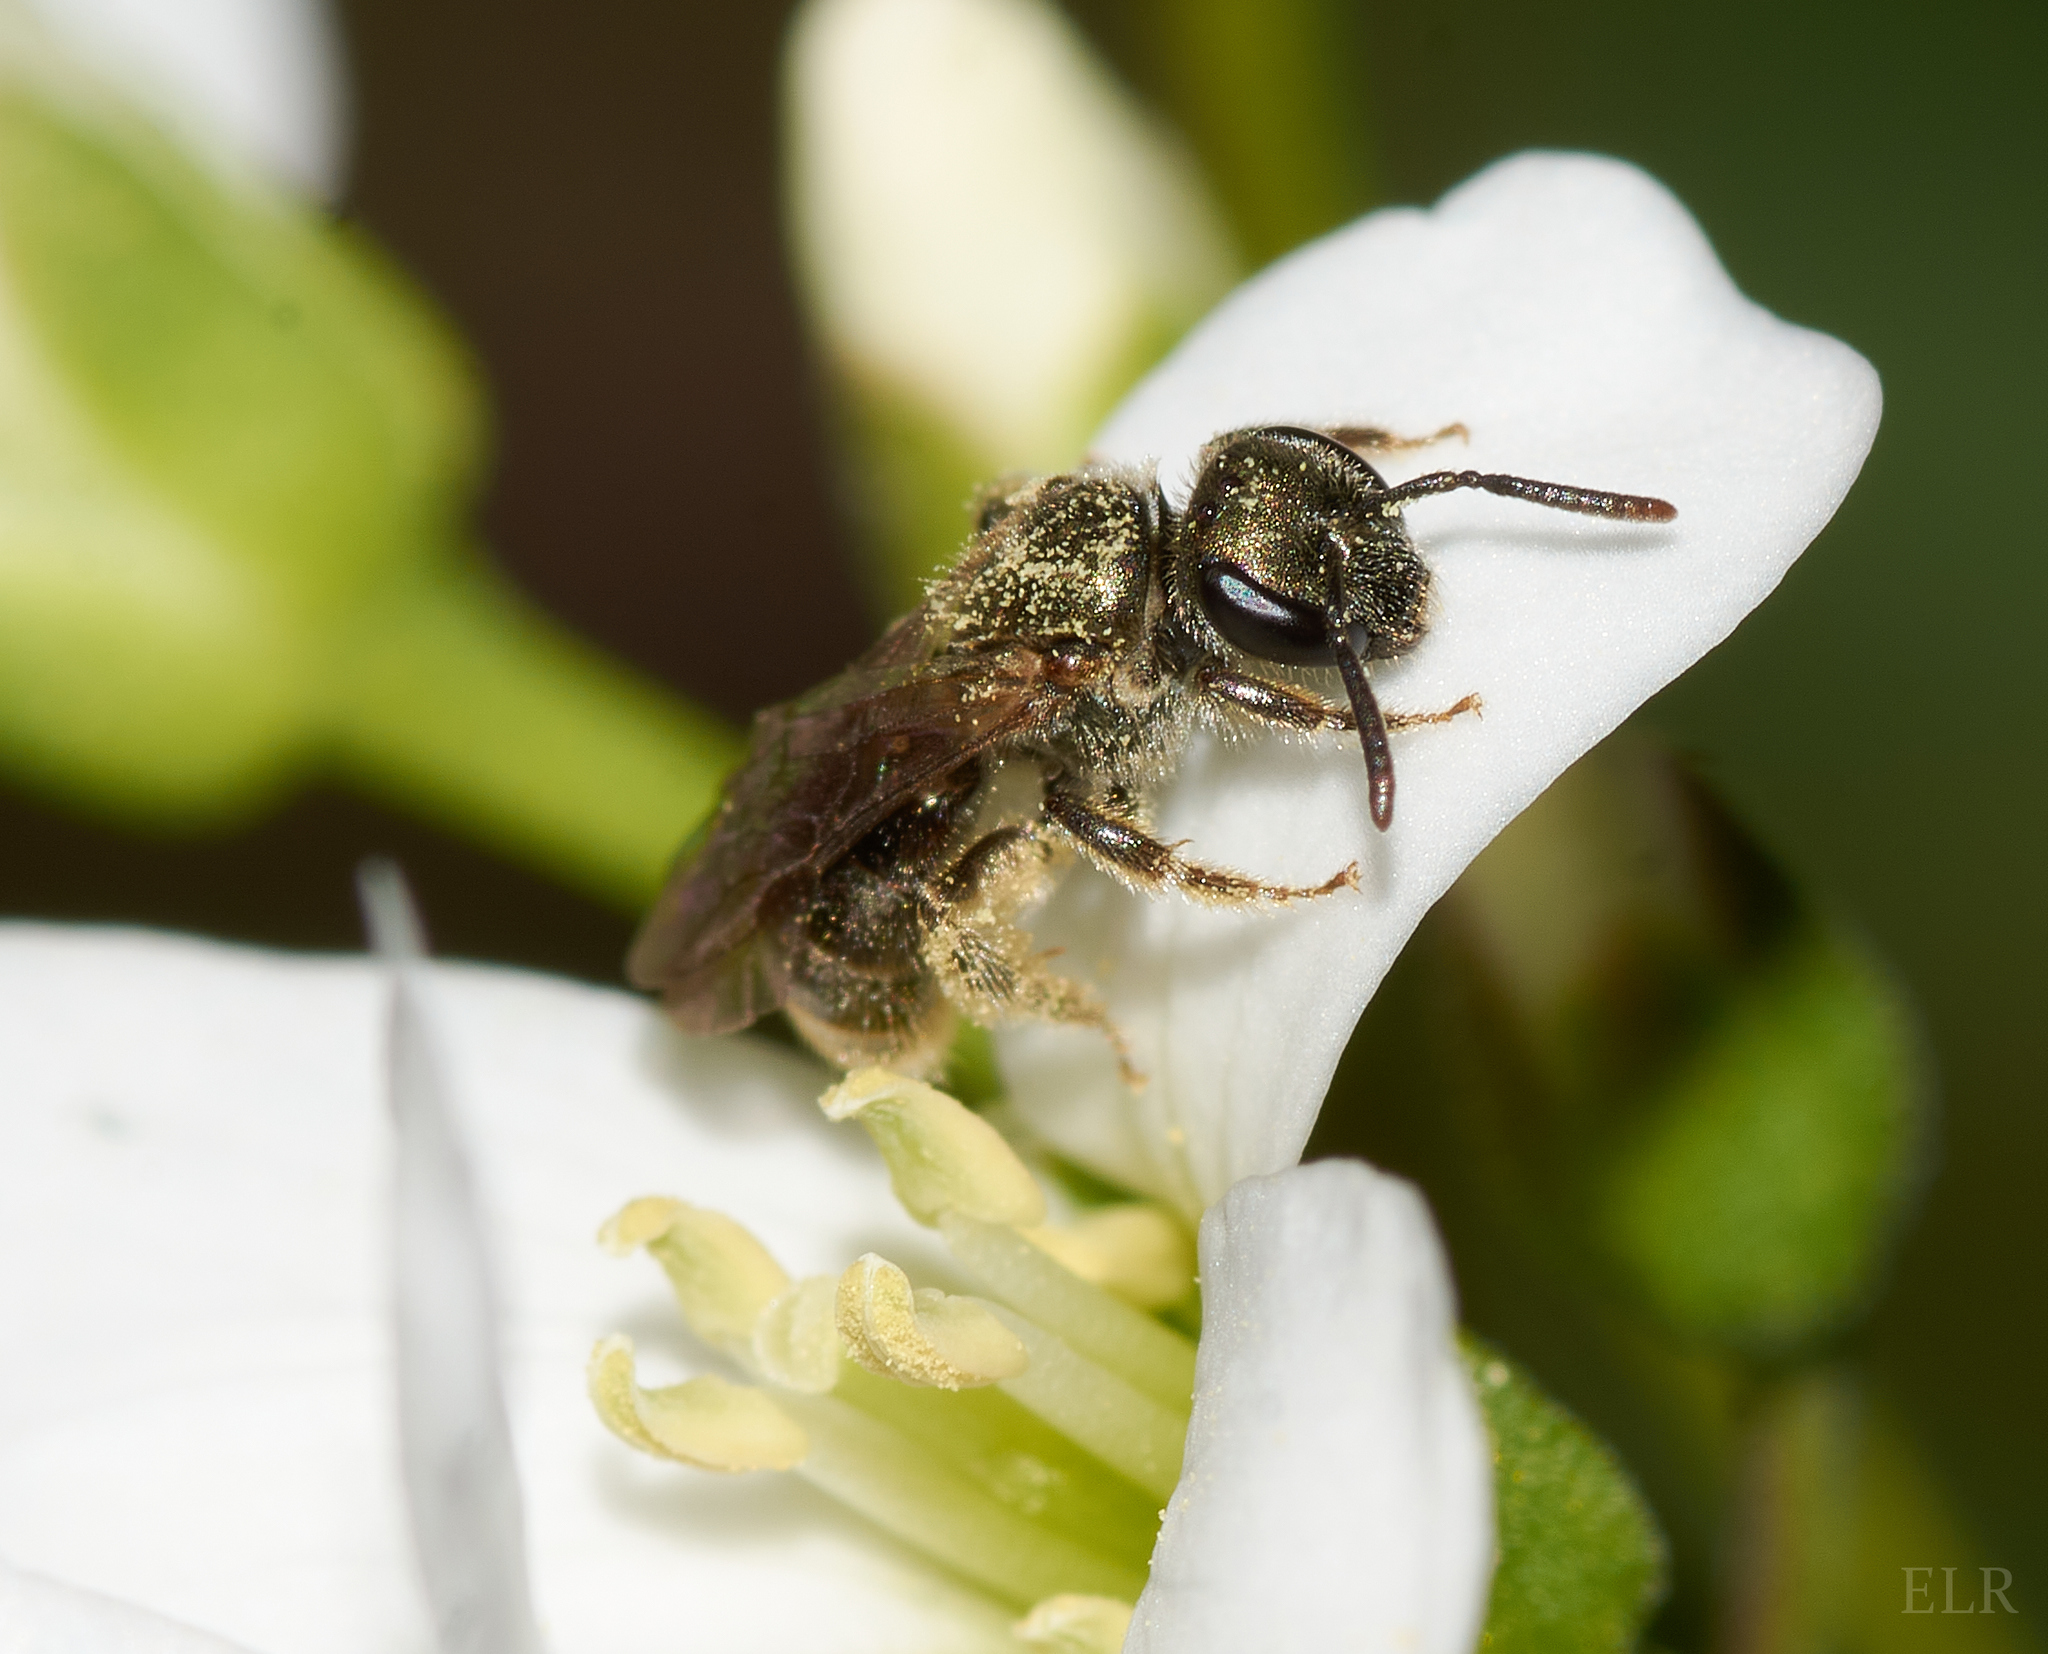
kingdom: Animalia
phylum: Arthropoda
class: Insecta
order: Hymenoptera
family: Halictidae
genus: Dialictus
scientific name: Dialictus
